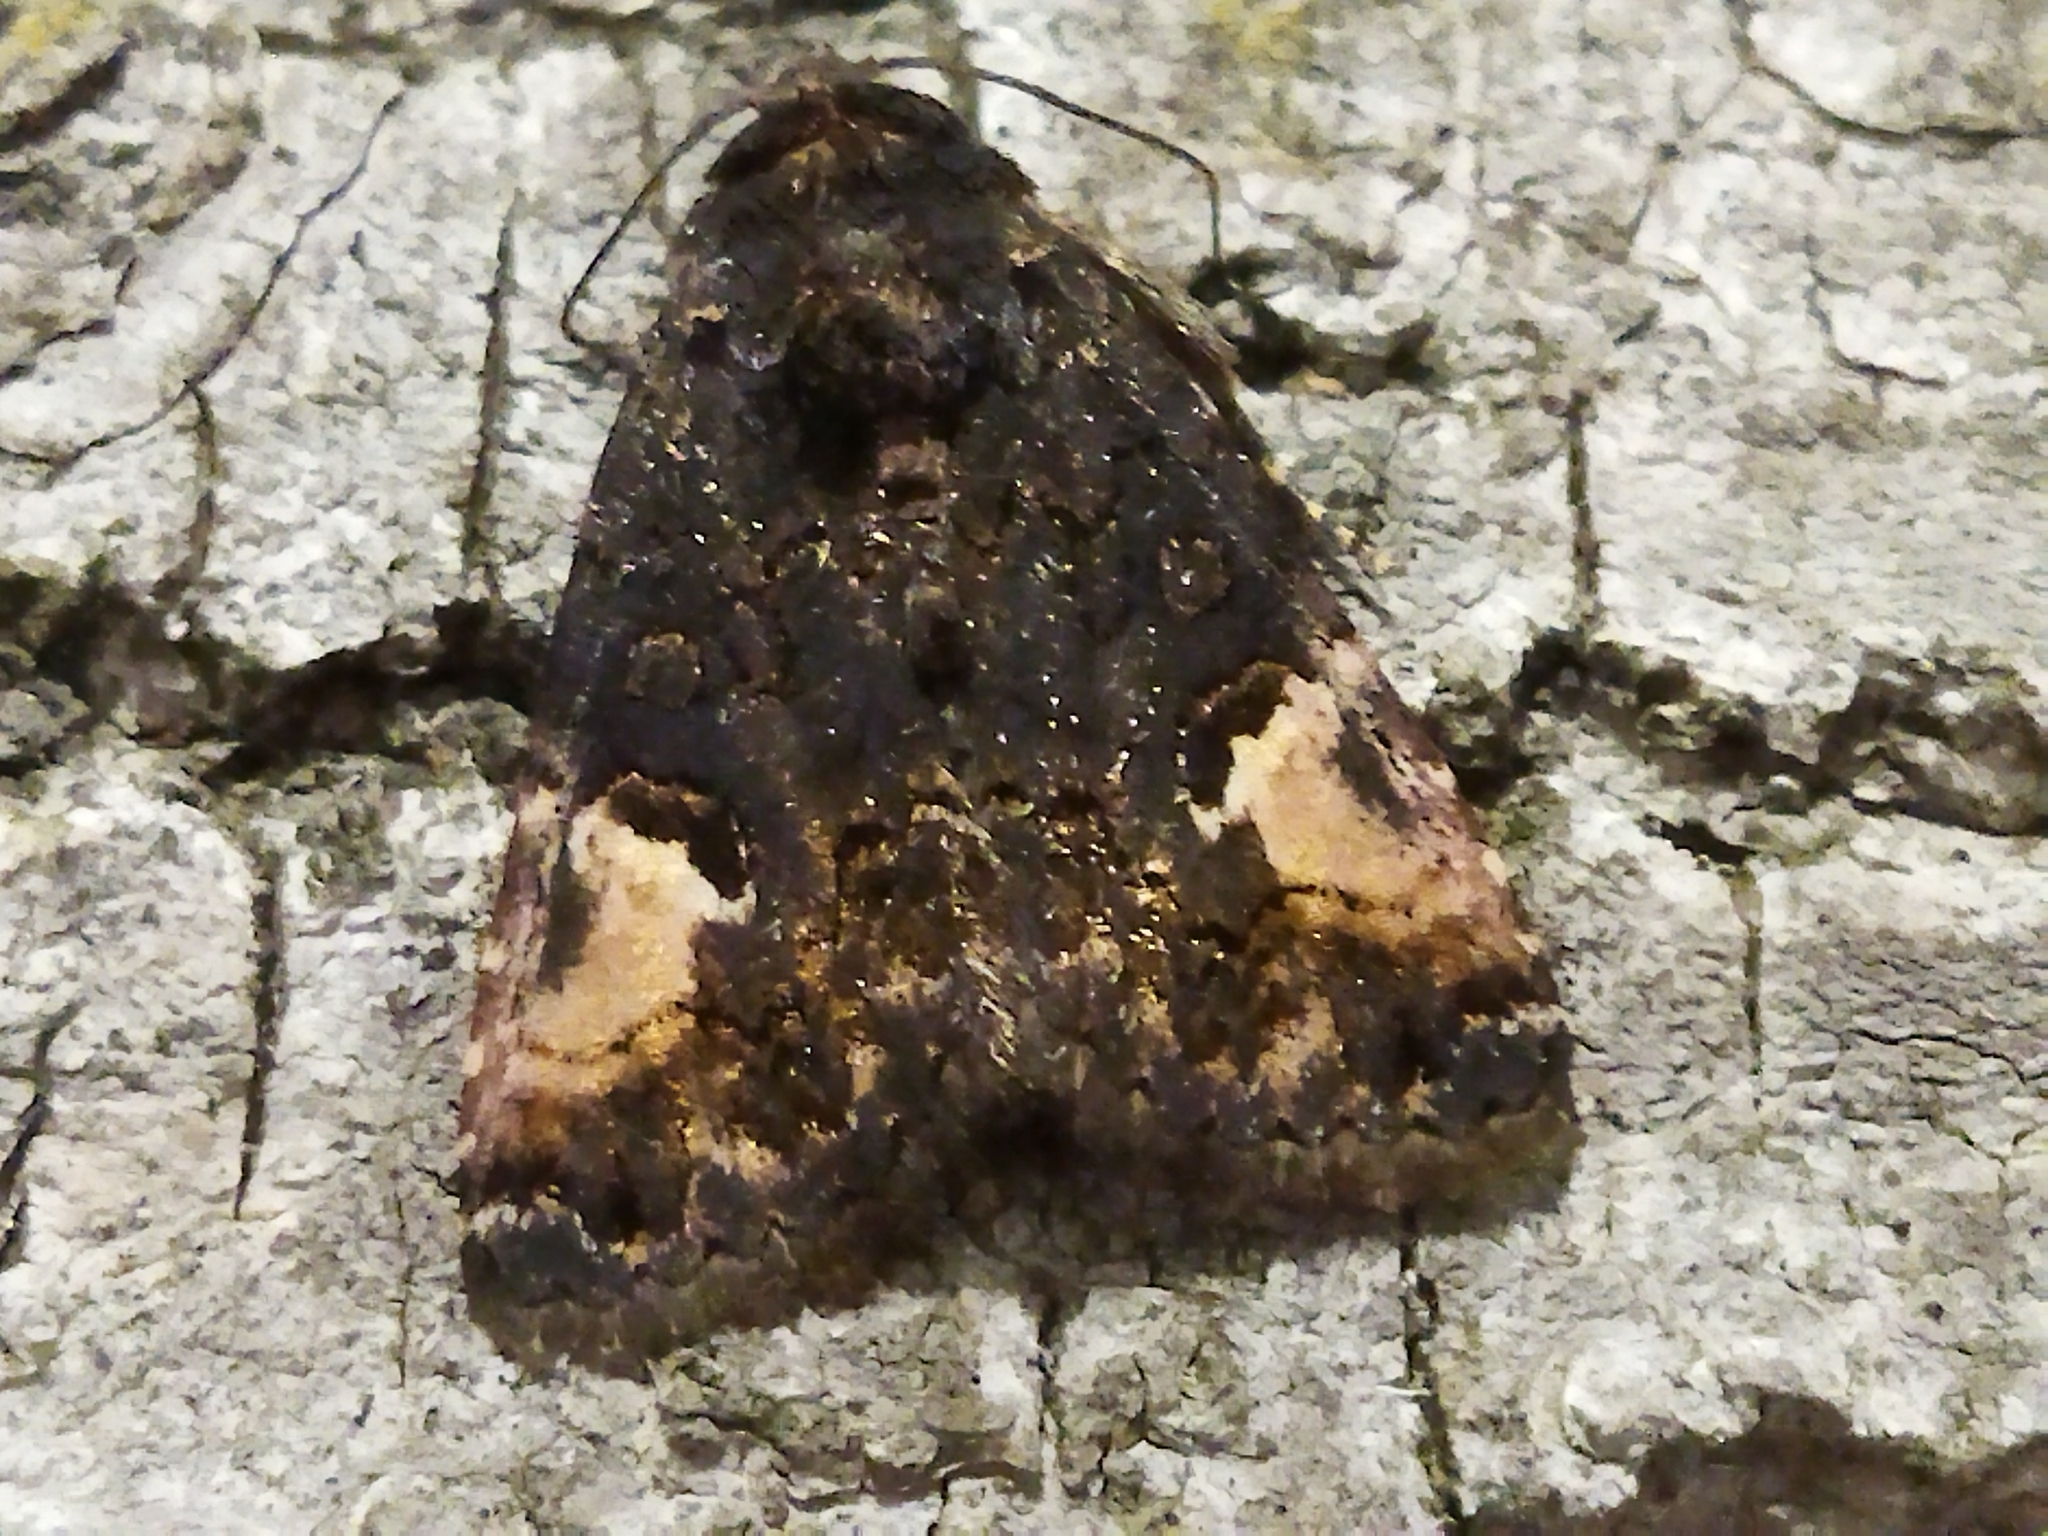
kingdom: Animalia
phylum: Arthropoda
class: Insecta
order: Lepidoptera
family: Noctuidae
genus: Aedia
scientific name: Aedia funesta
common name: The druid
